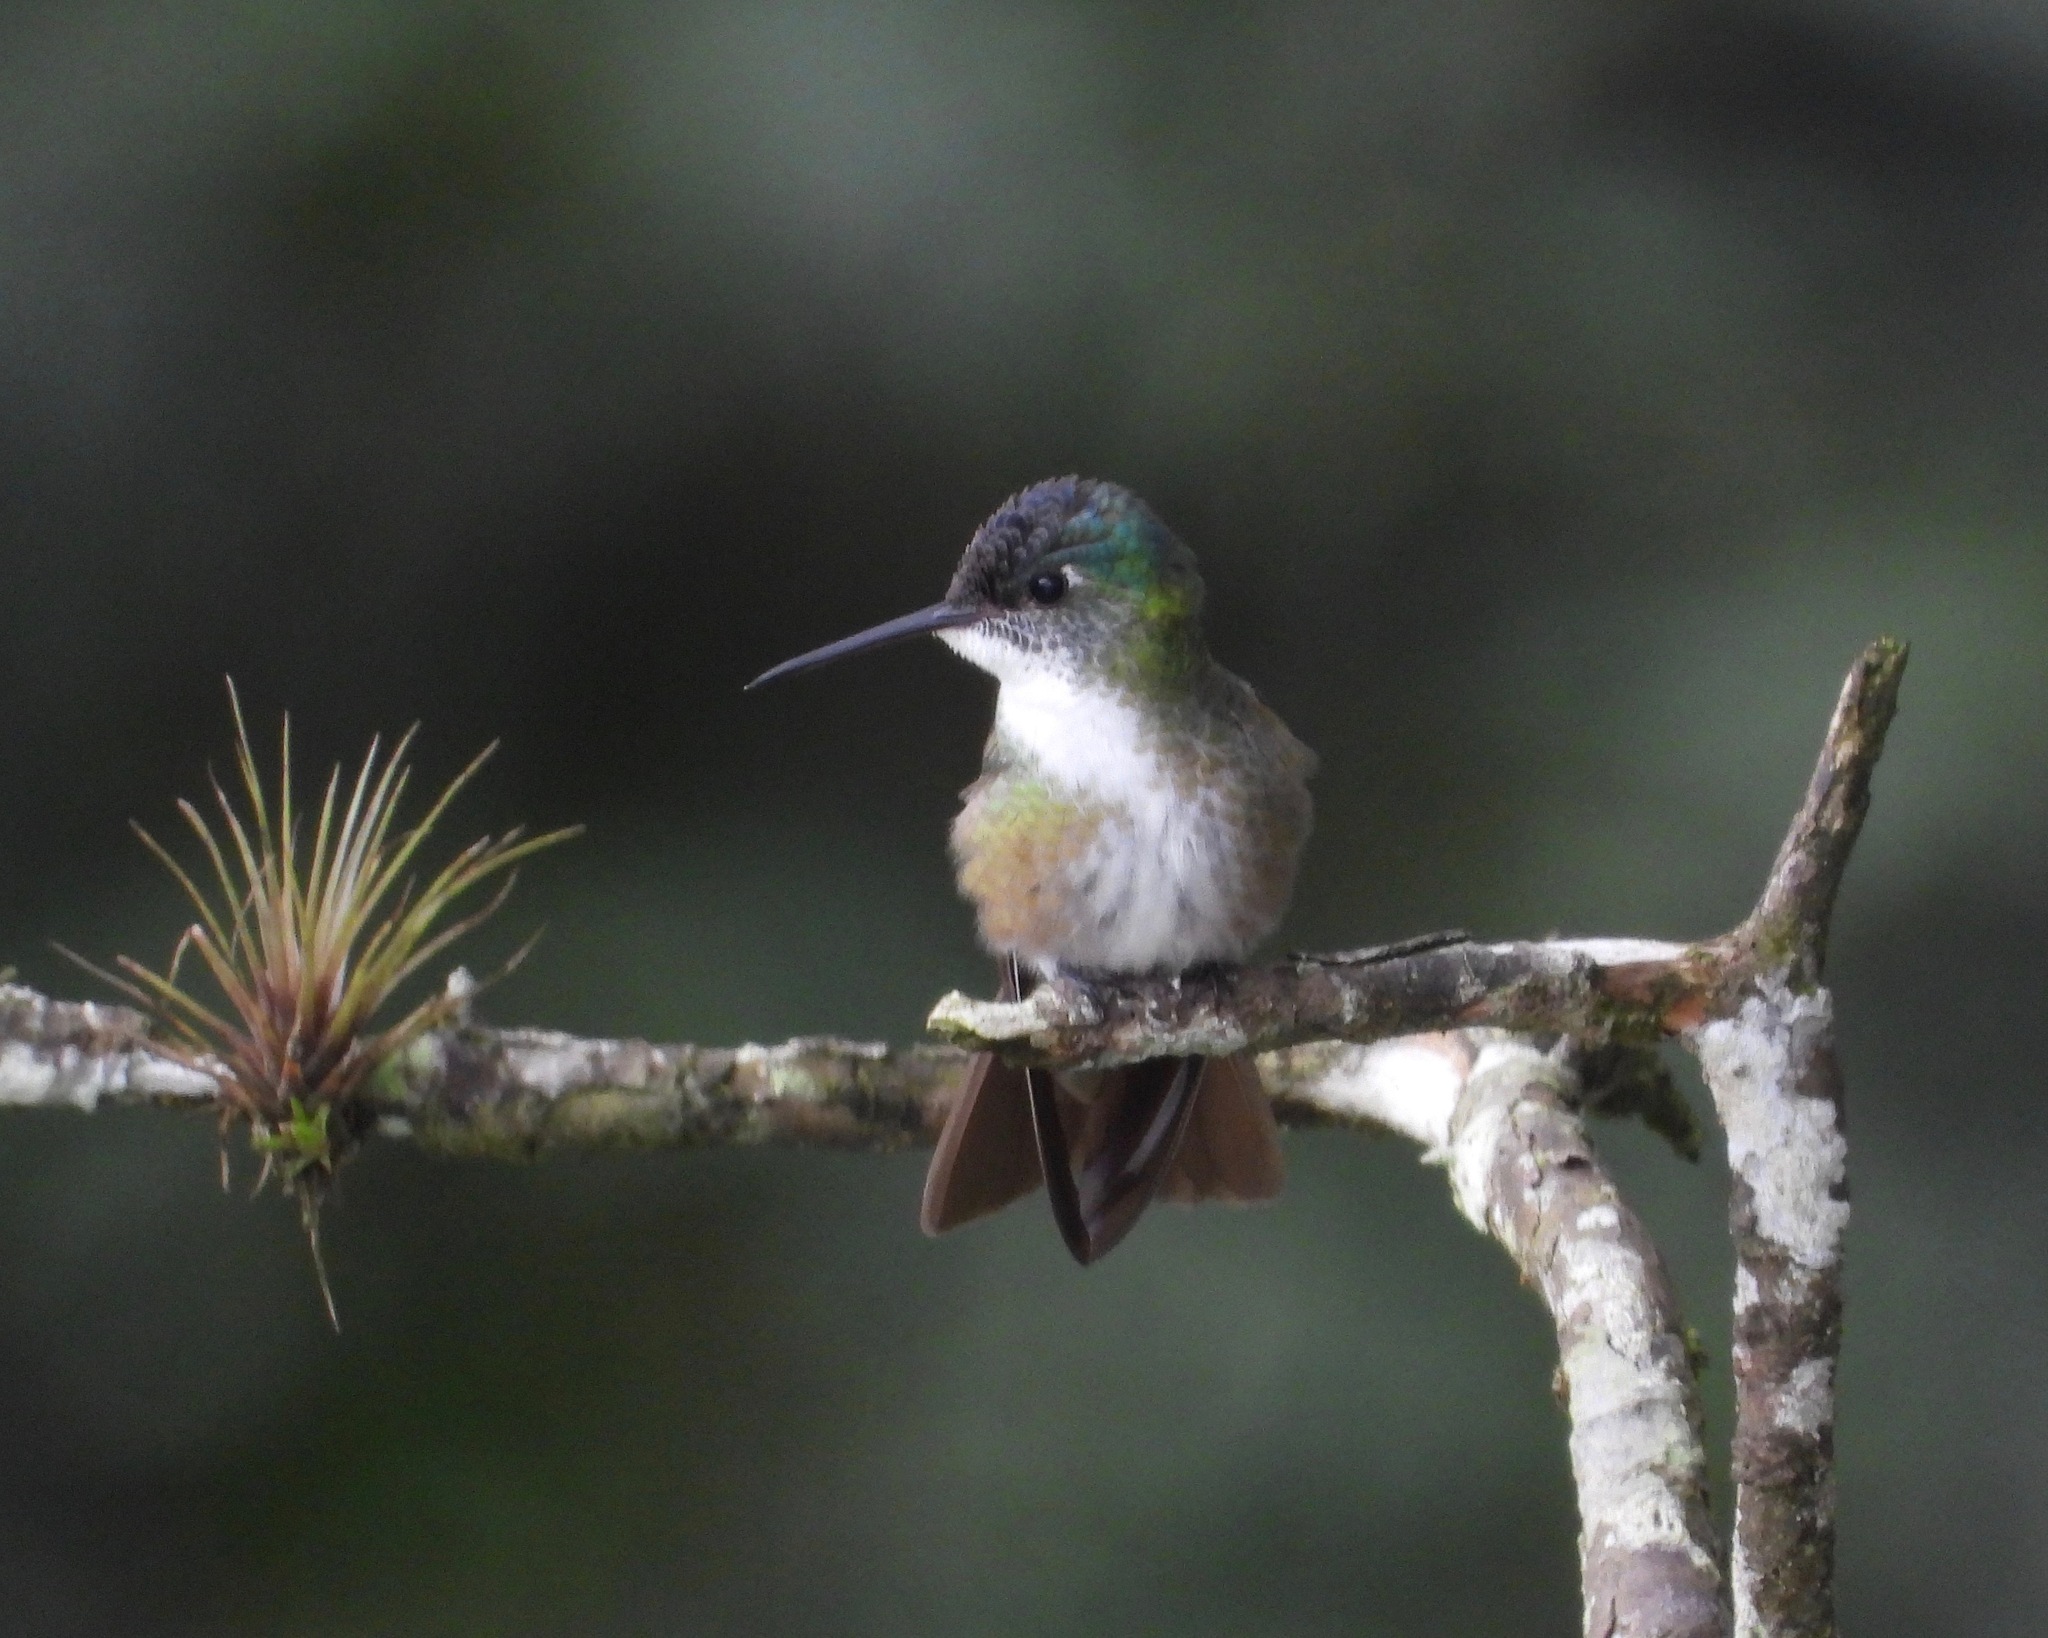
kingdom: Animalia
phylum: Chordata
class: Aves
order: Apodiformes
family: Trochilidae
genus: Saucerottia
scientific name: Saucerottia cyanocephala
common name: Azure-crowned hummingbird
